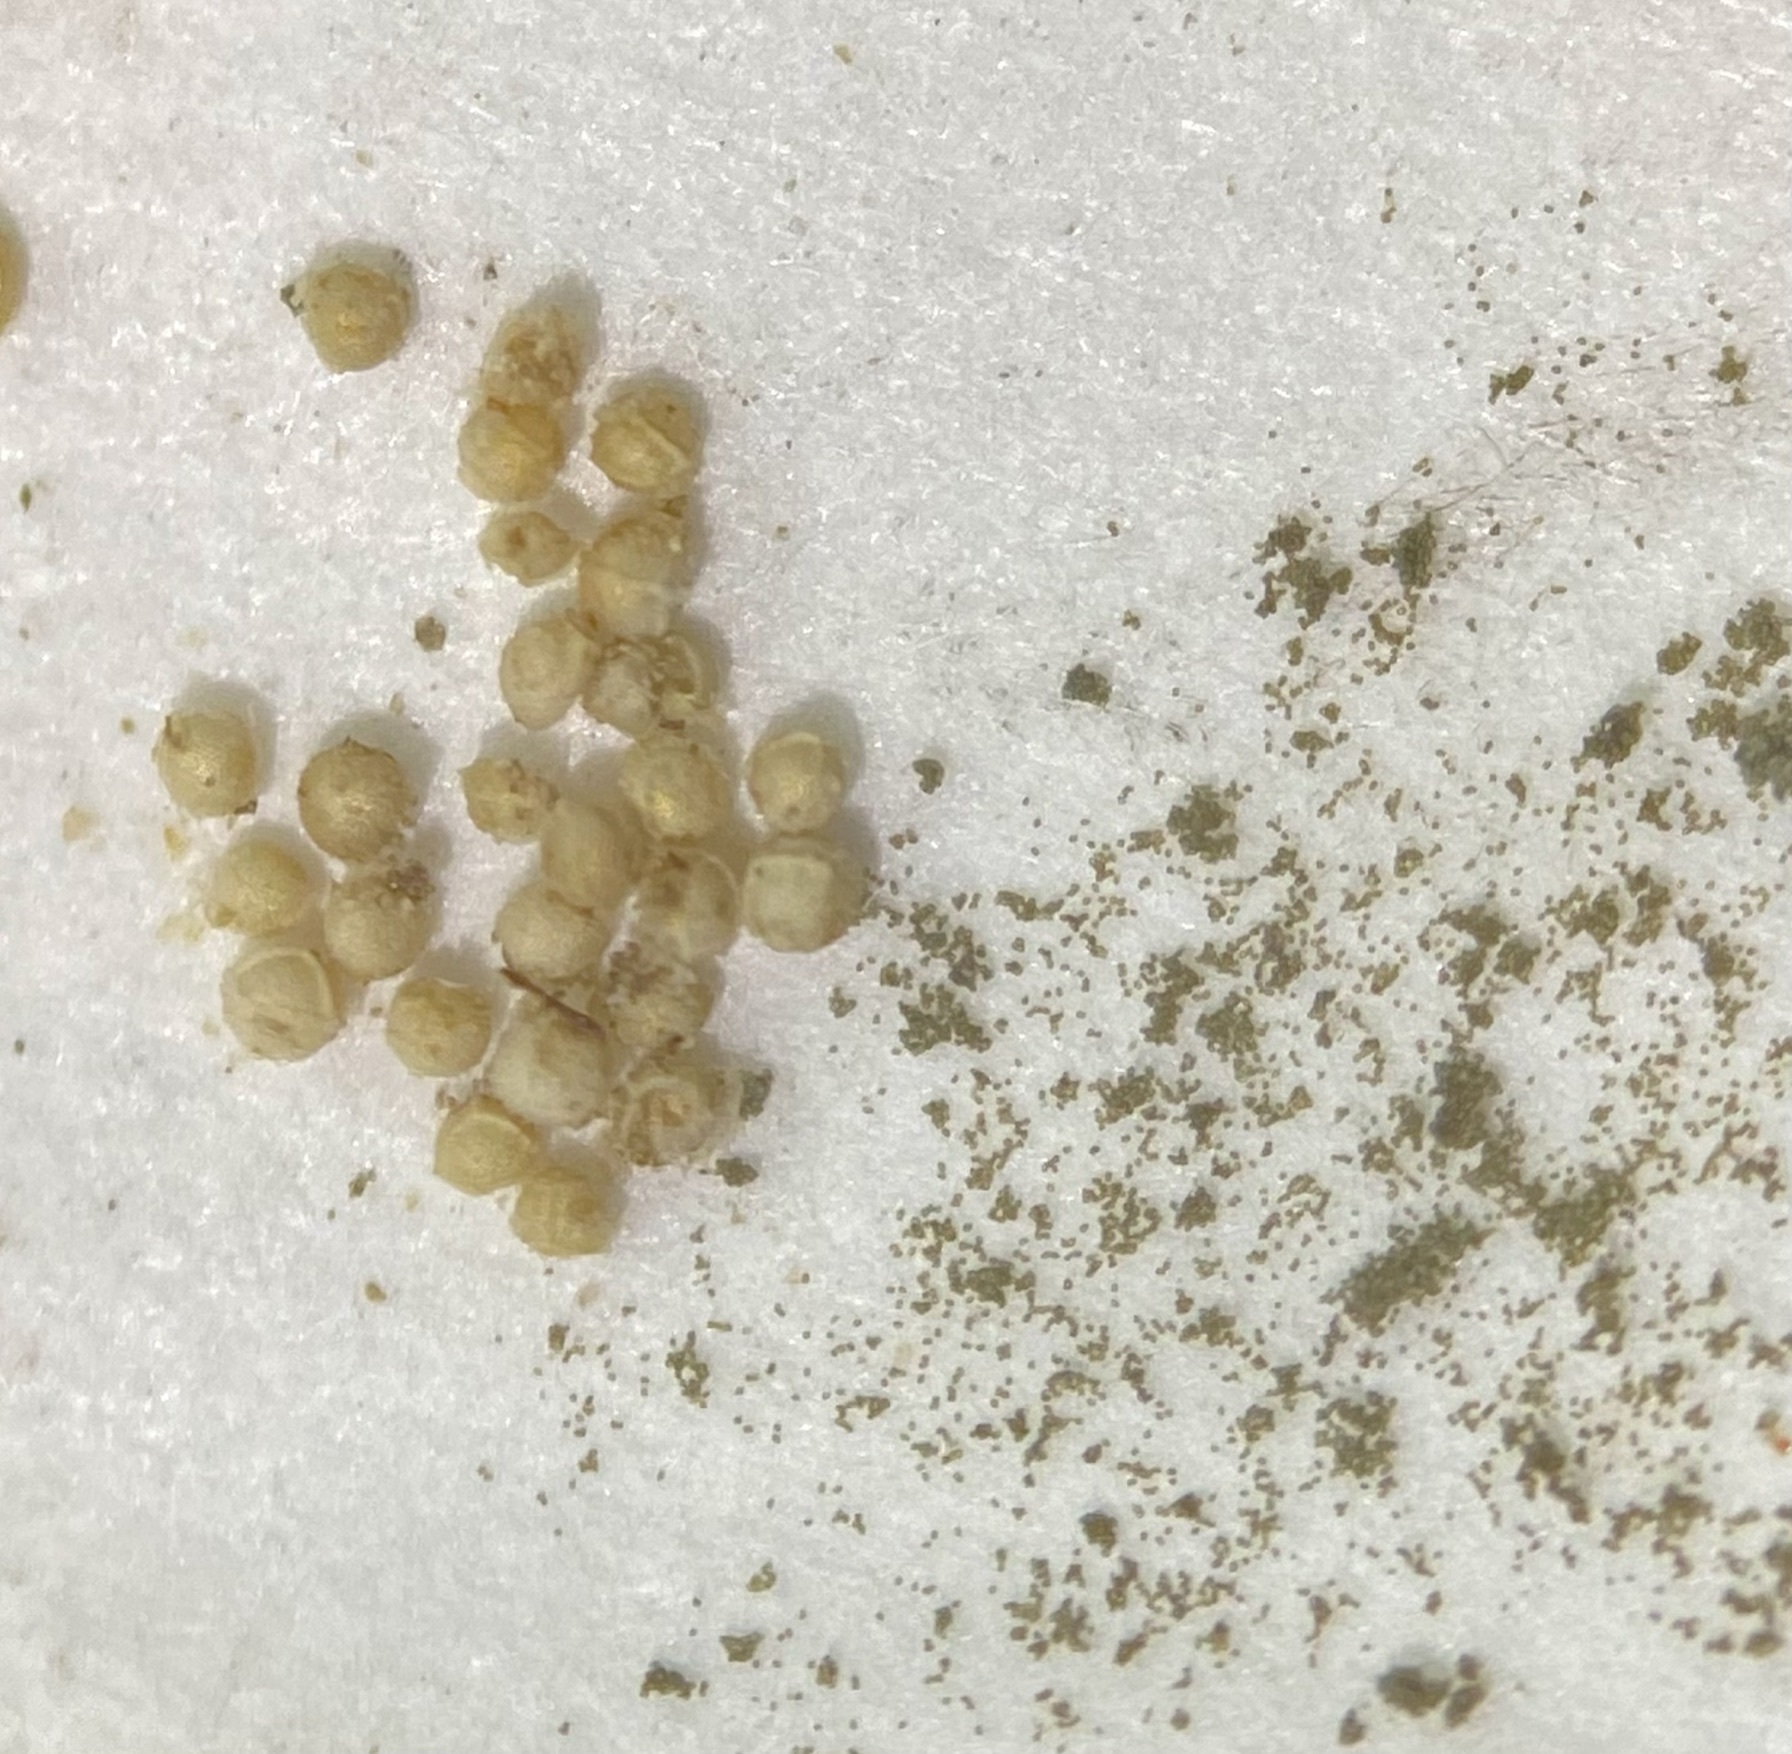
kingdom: Plantae
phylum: Tracheophyta
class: Lycopodiopsida
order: Isoetales
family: Isoetaceae
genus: Isoetes
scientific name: Isoetes howellii
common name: Howell's quillwort
